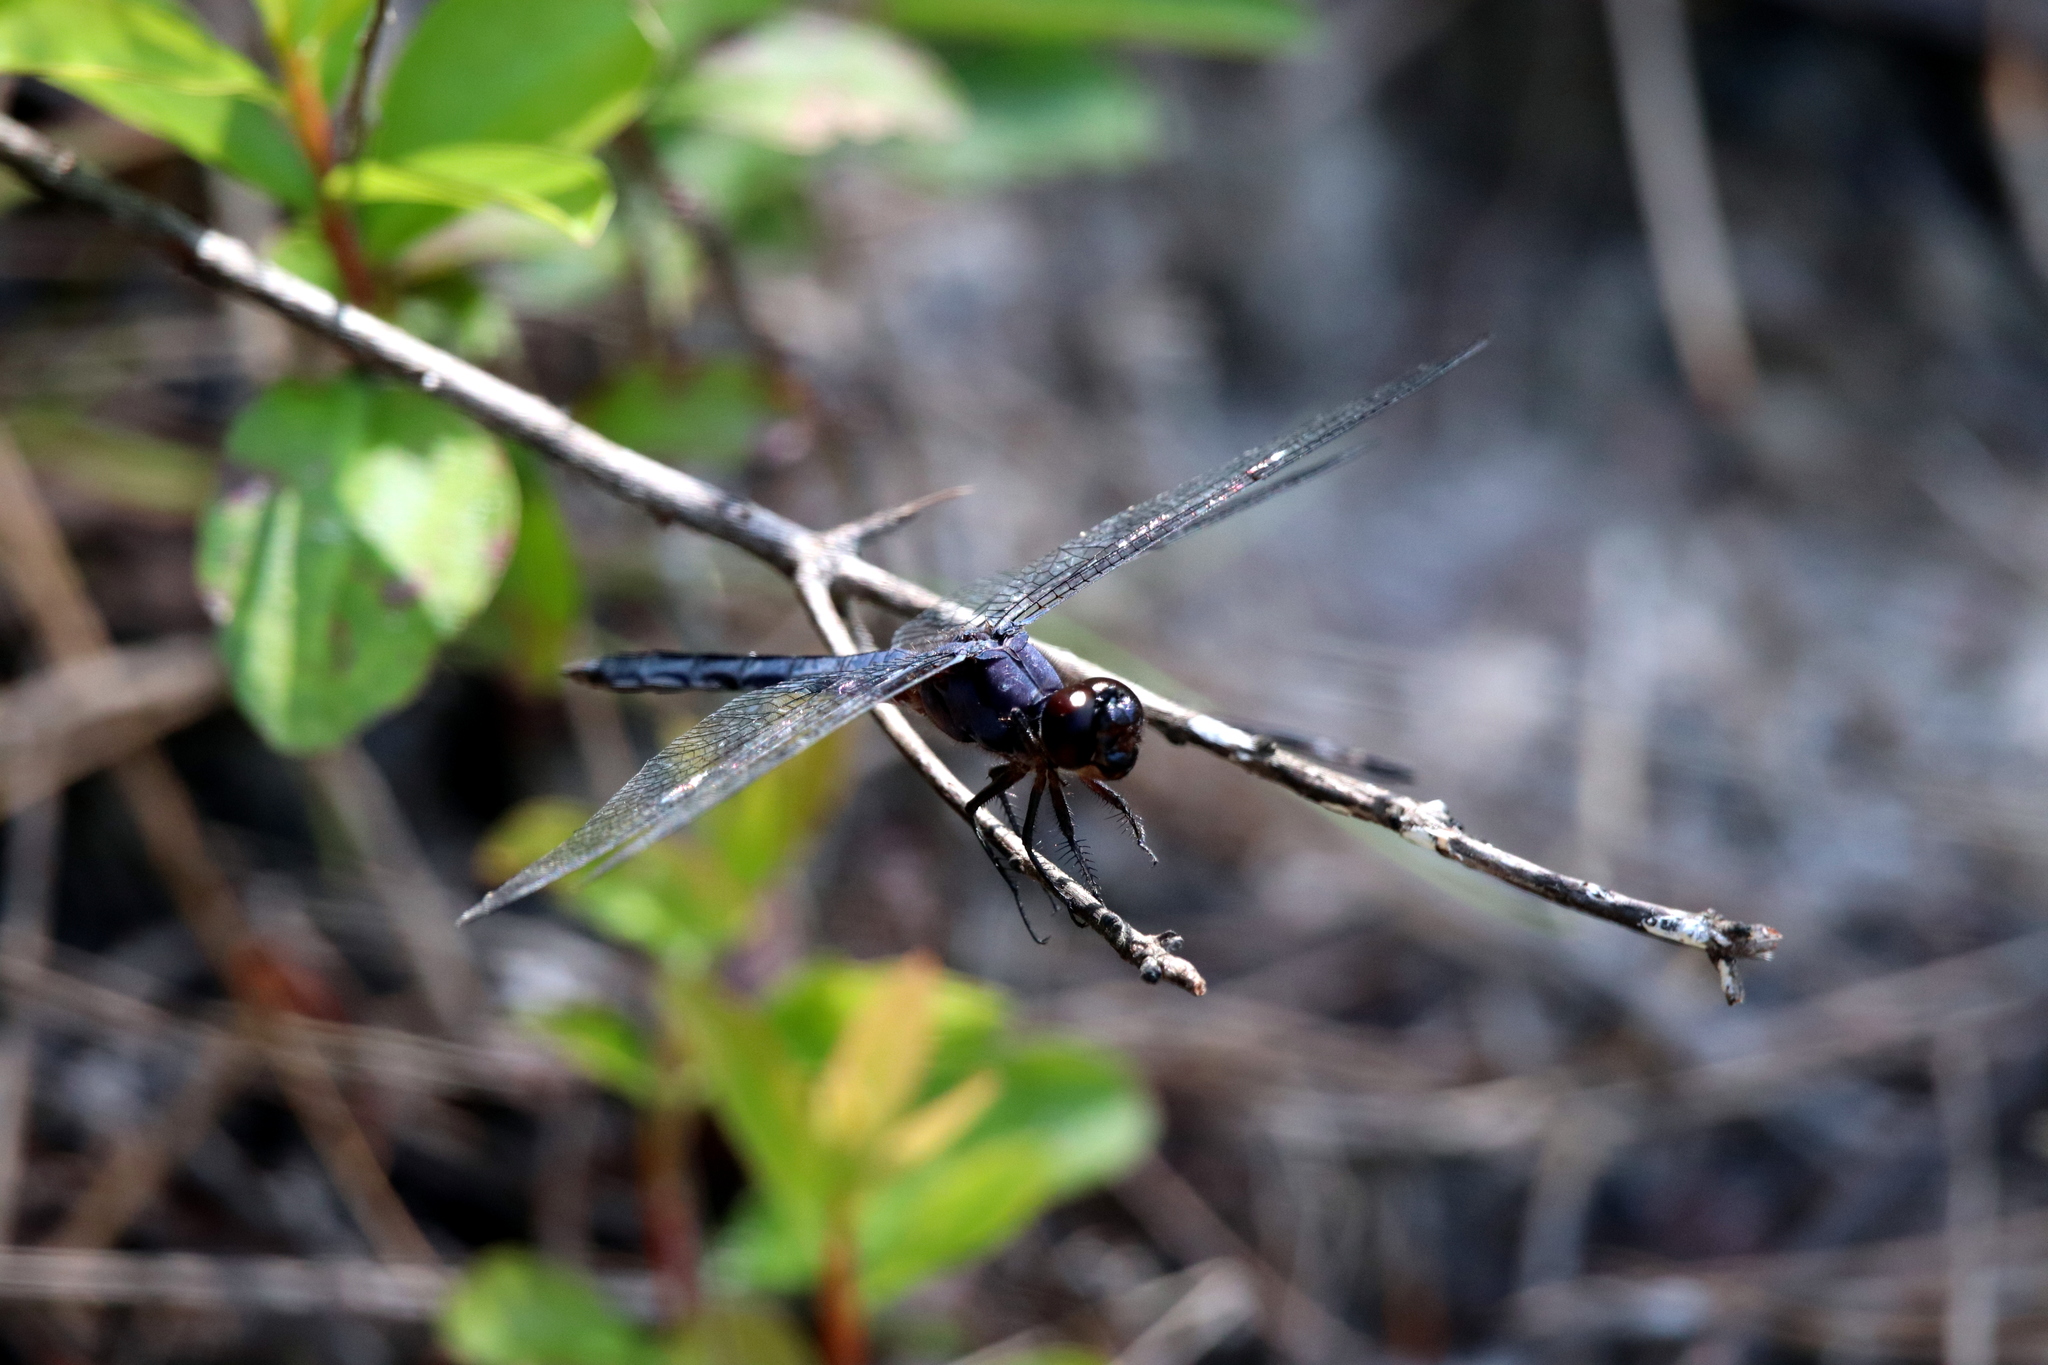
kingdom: Animalia
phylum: Arthropoda
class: Insecta
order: Odonata
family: Libellulidae
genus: Libellula
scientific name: Libellula incesta
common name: Slaty skimmer
